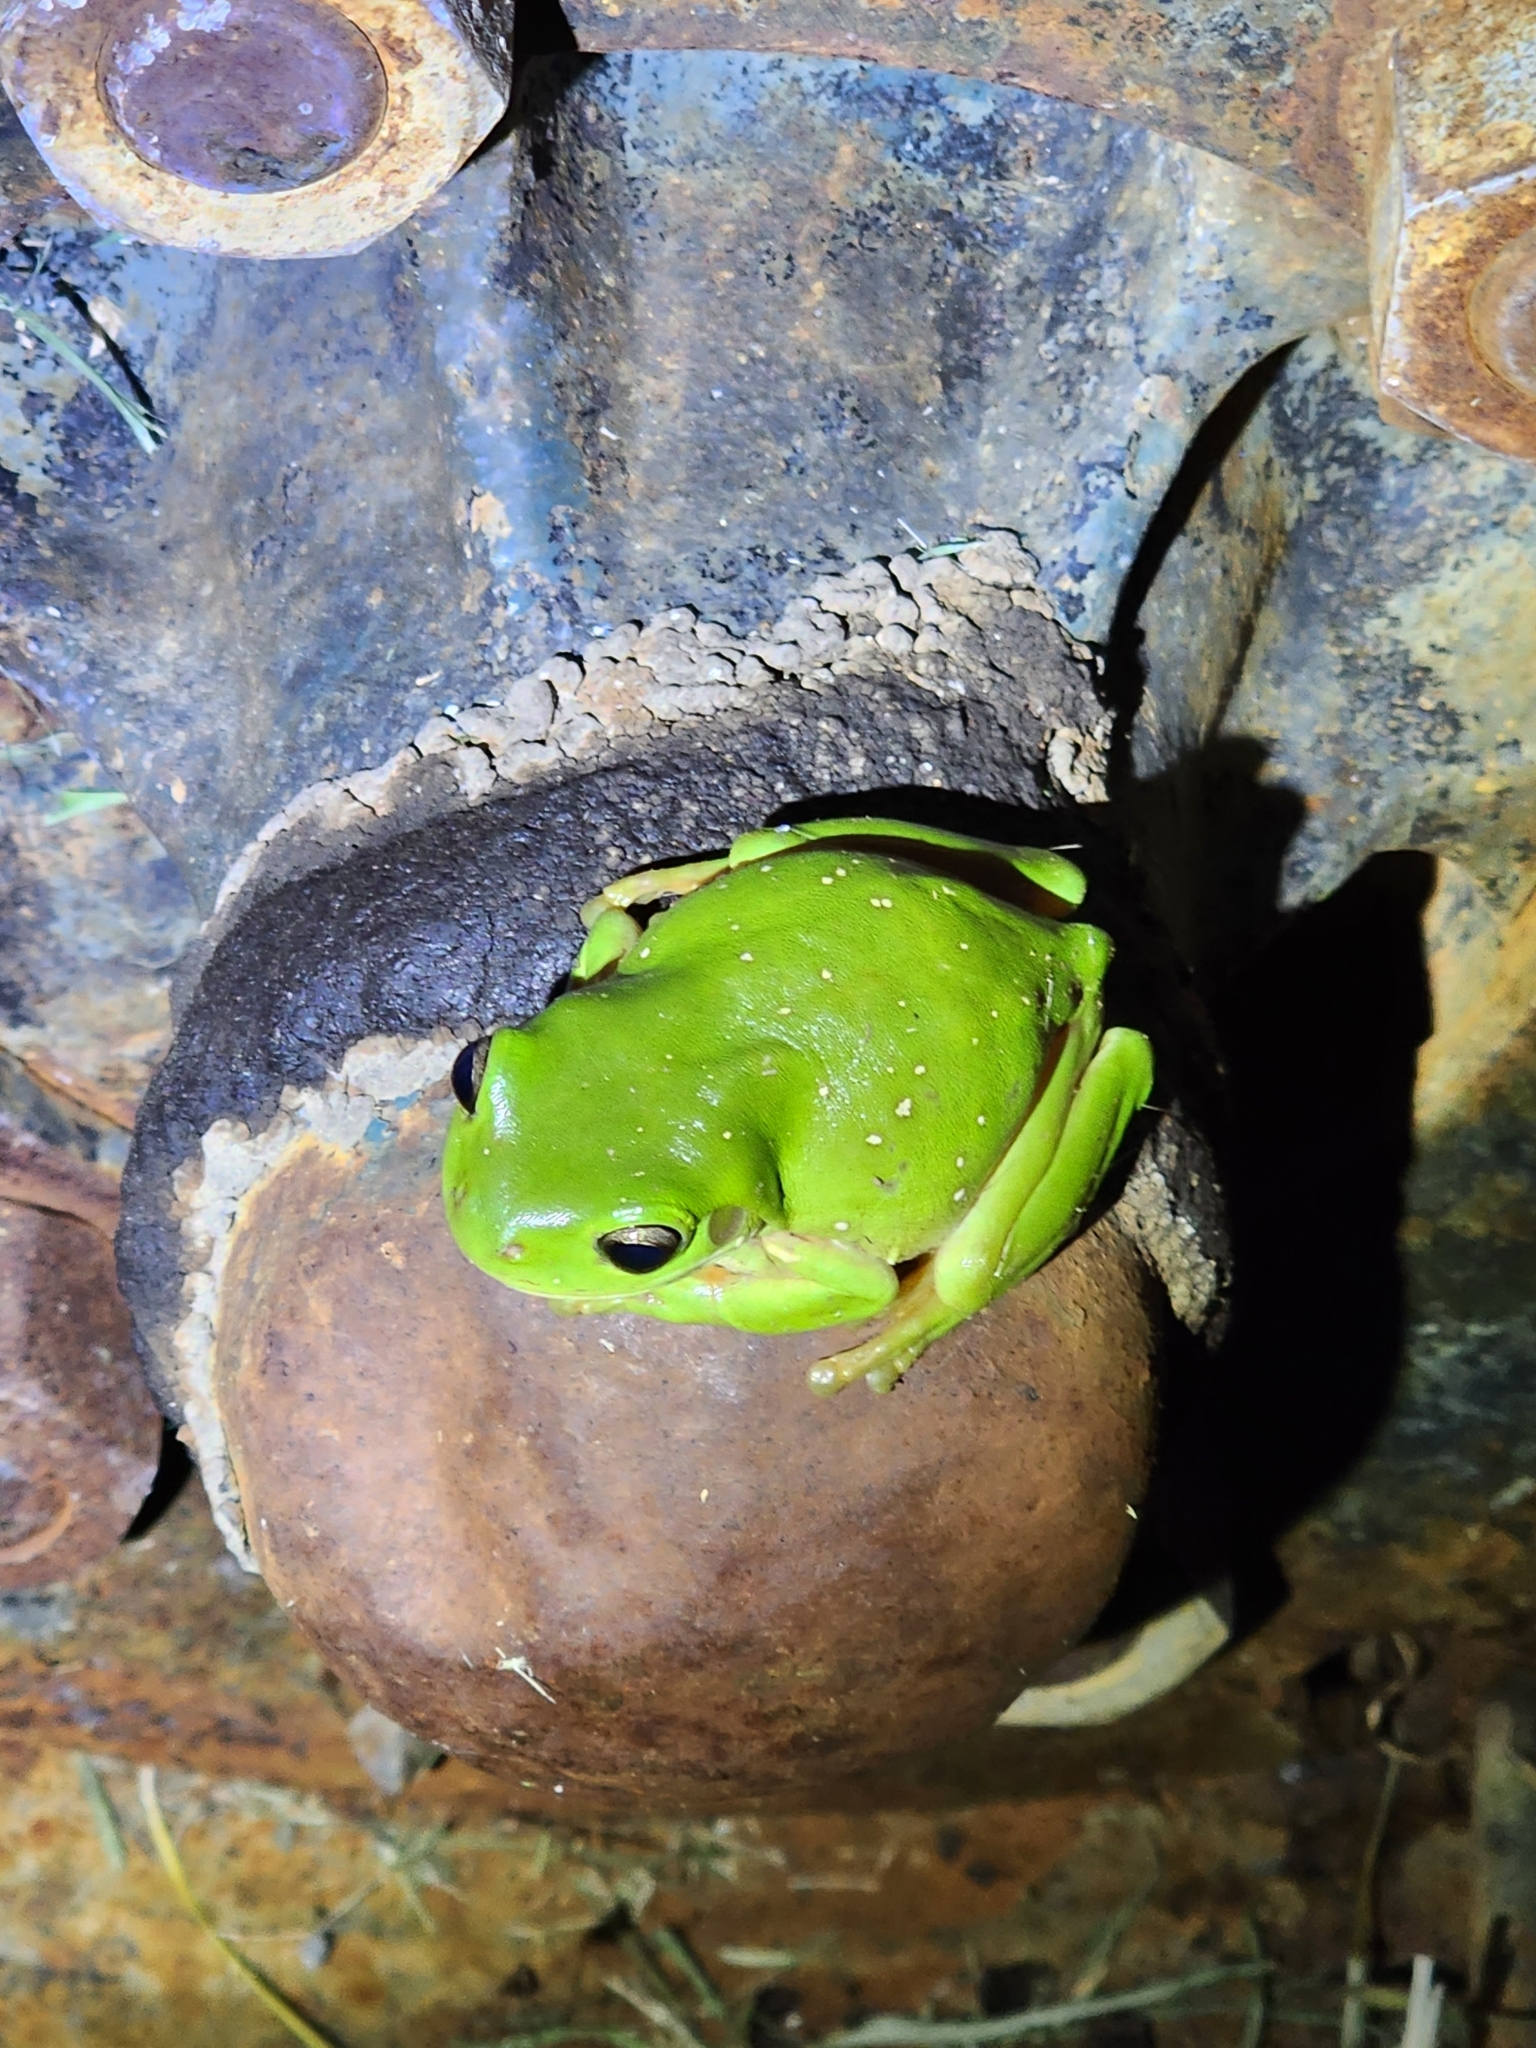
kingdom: Animalia
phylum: Chordata
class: Amphibia
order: Anura
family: Pelodryadidae
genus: Ranoidea
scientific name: Ranoidea caerulea
